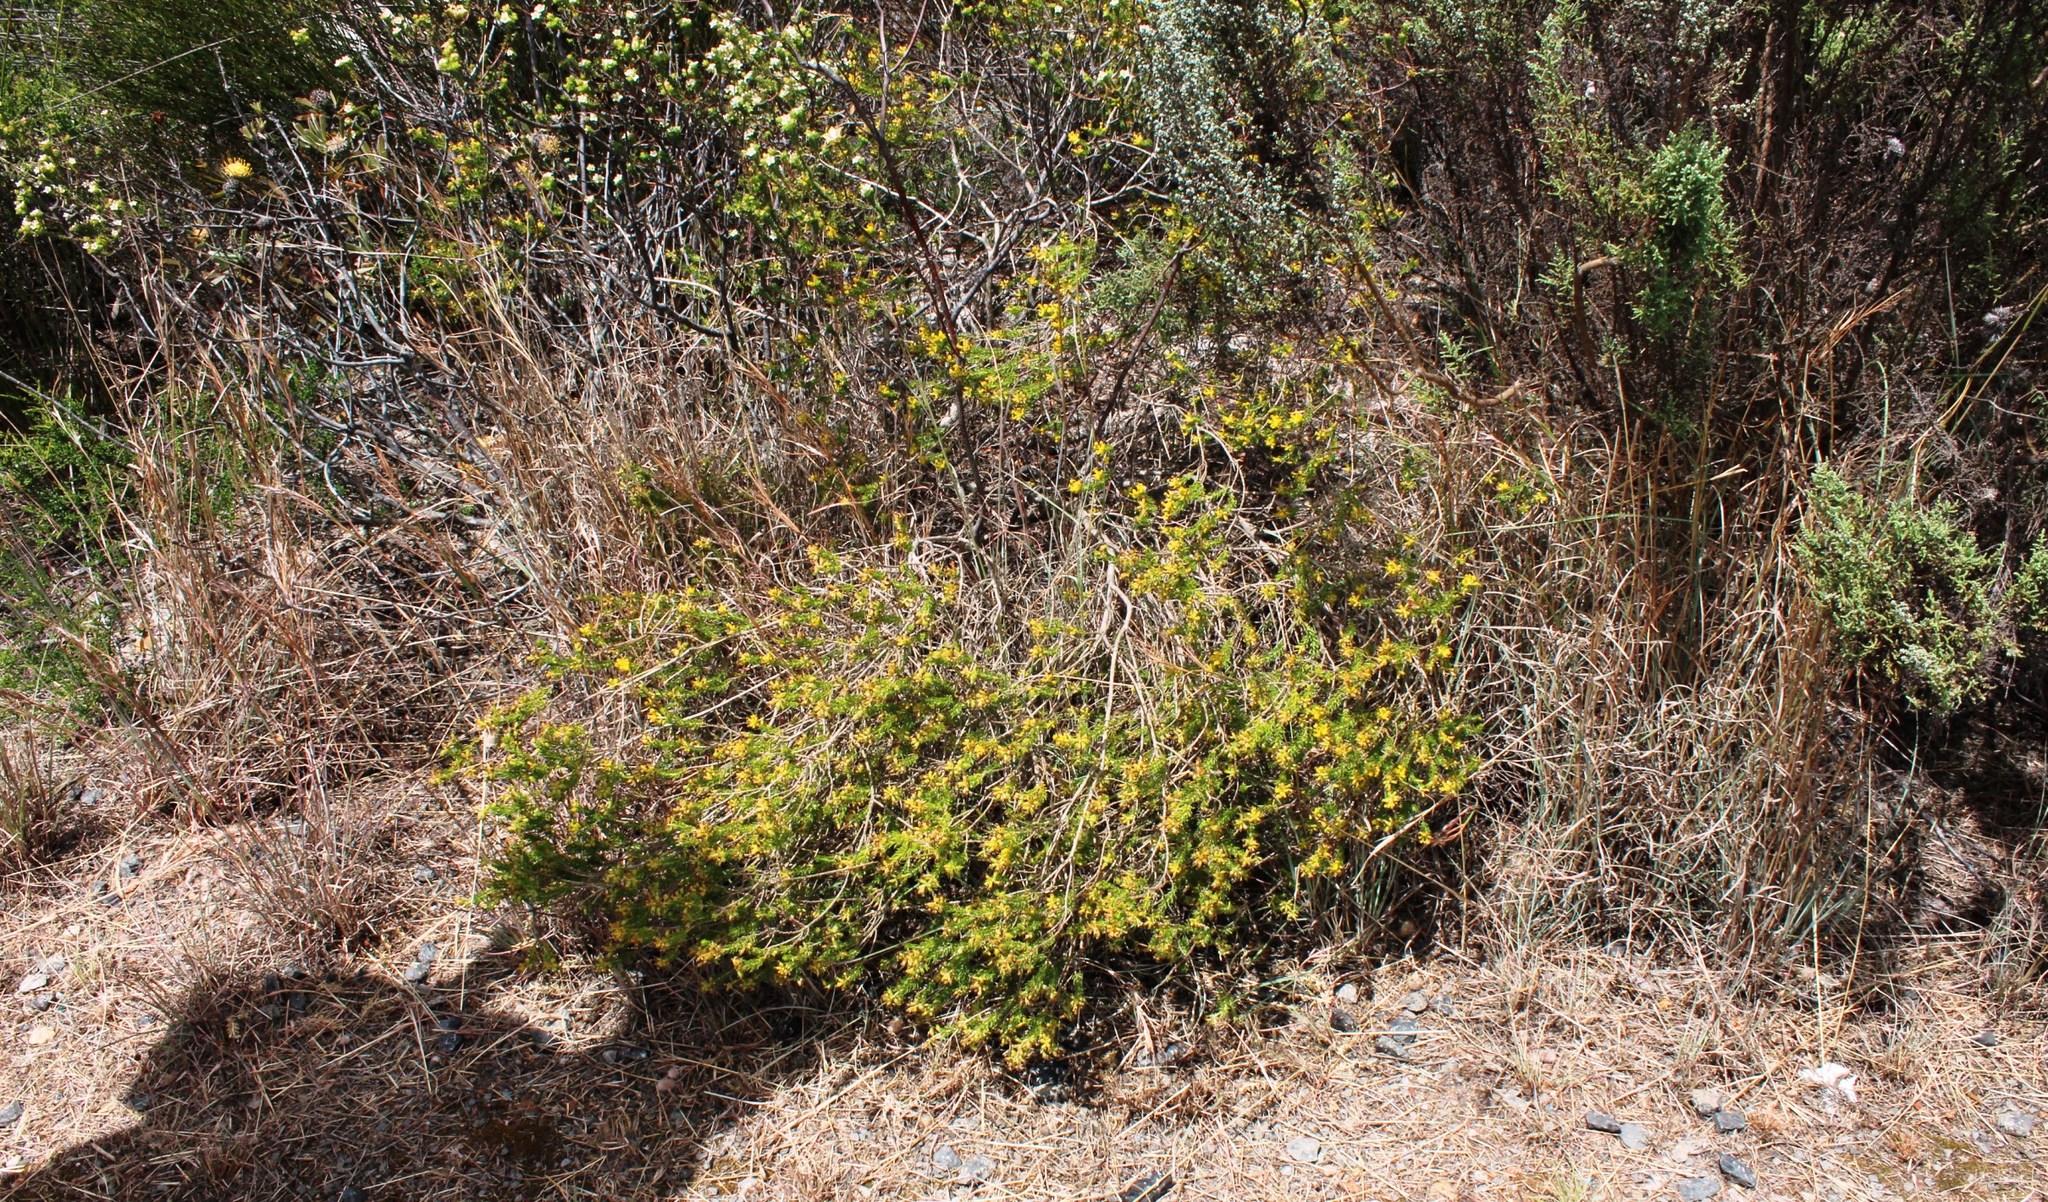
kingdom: Plantae
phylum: Tracheophyta
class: Magnoliopsida
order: Fabales
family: Fabaceae
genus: Aspalathus
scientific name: Aspalathus tylodes
